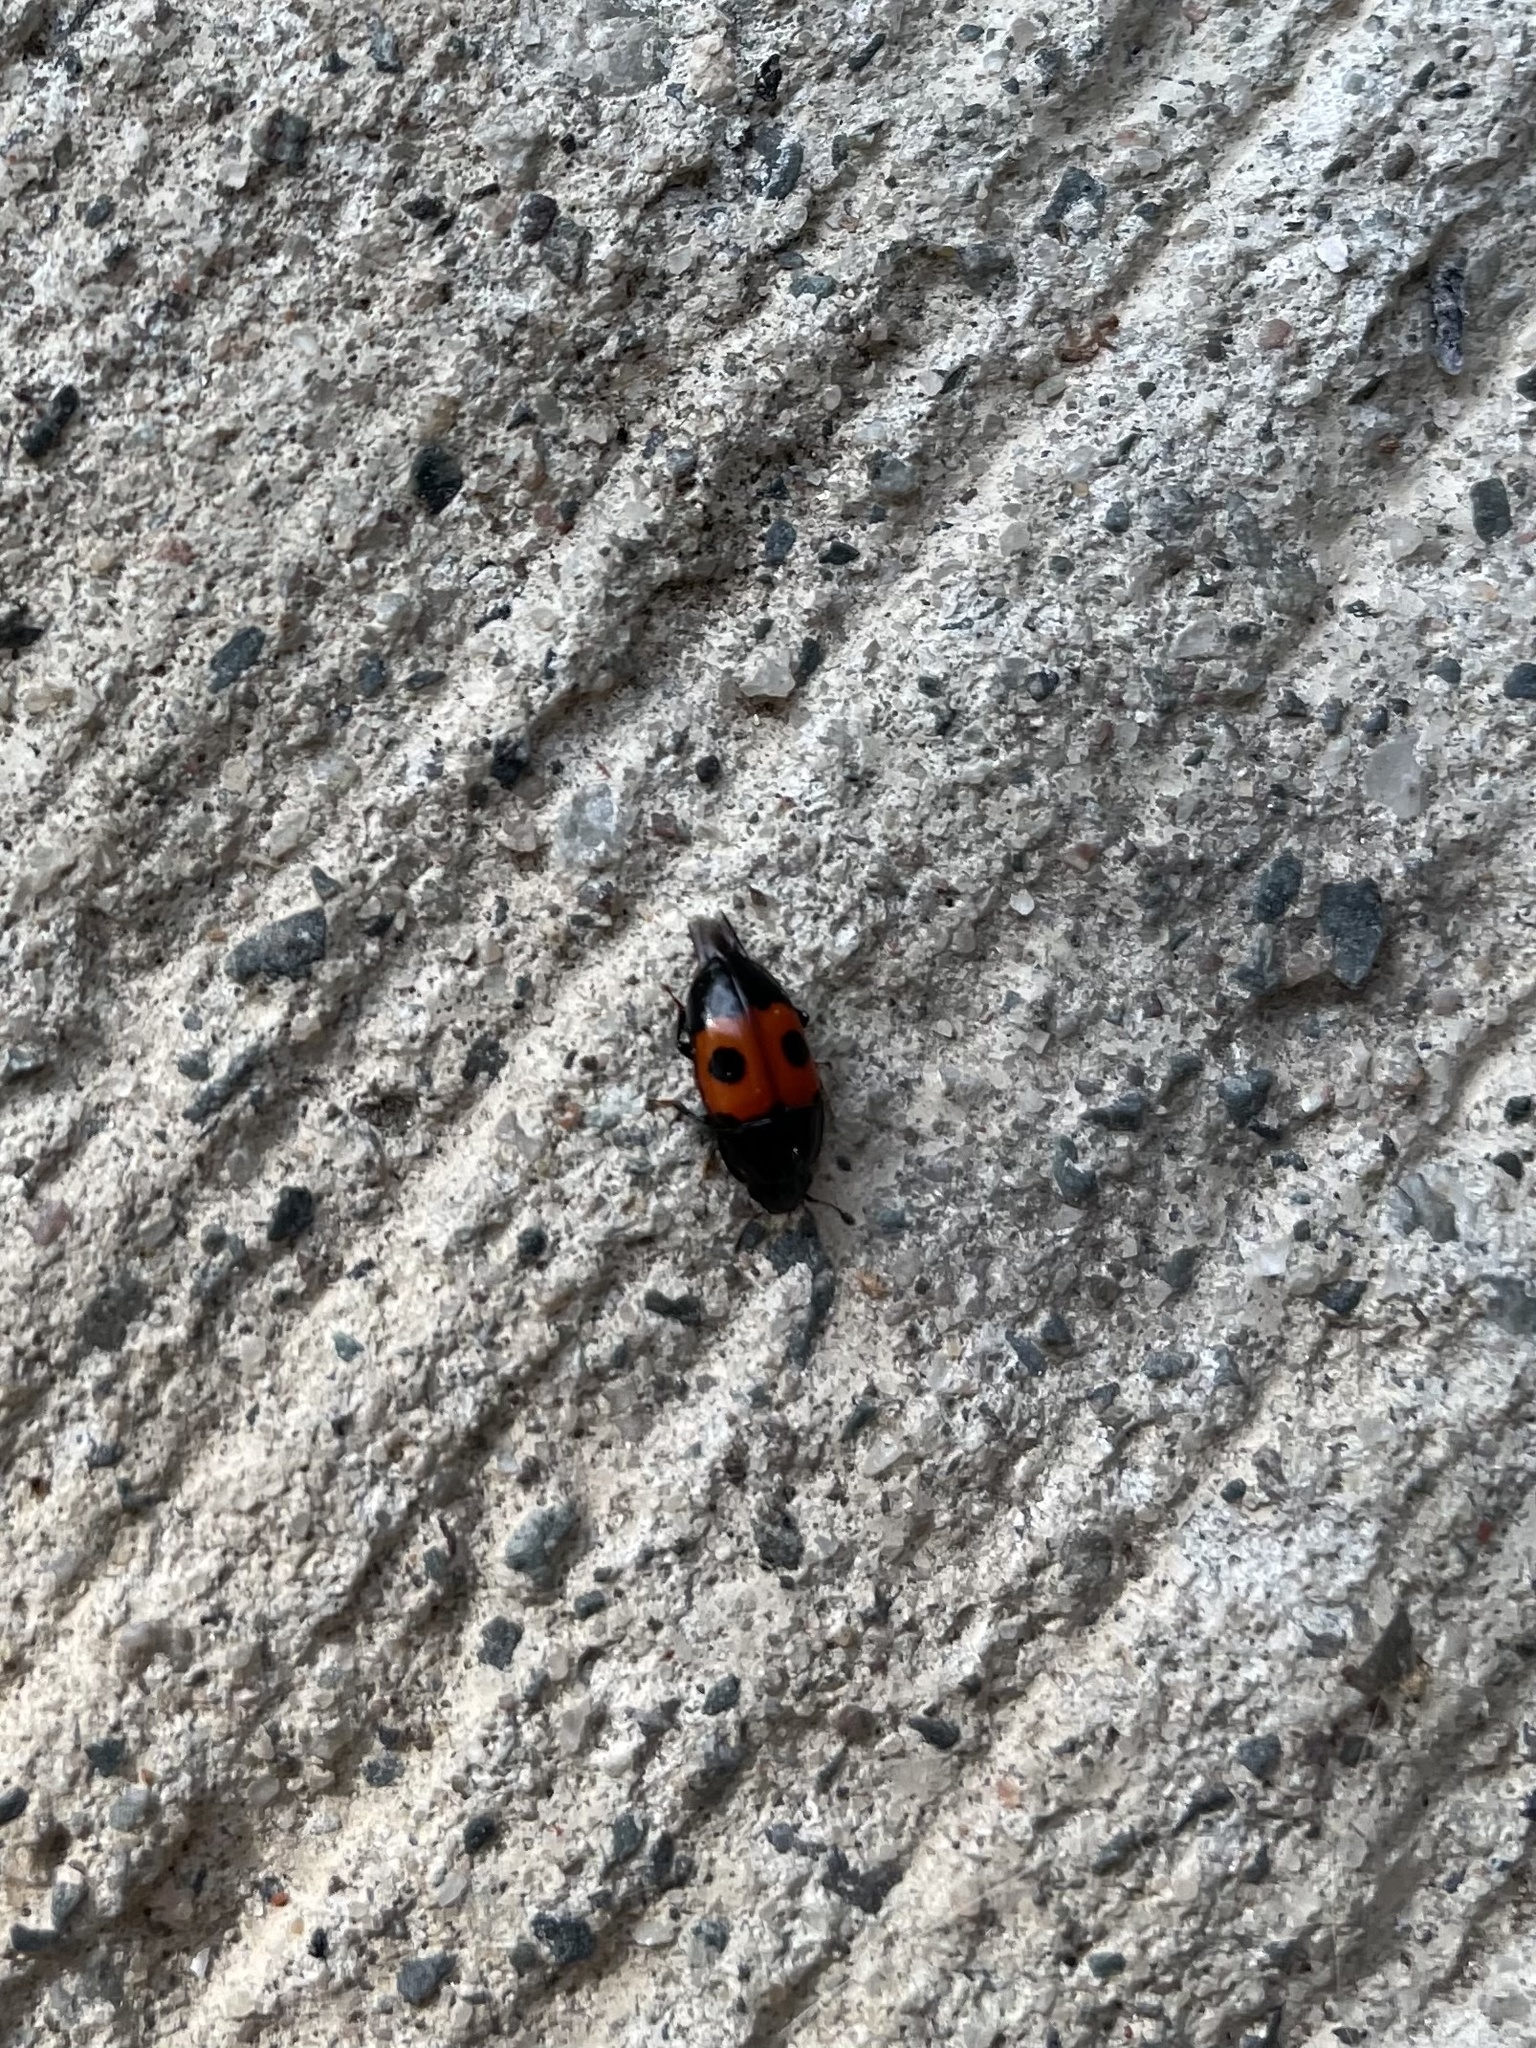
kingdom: Animalia
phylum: Arthropoda
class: Insecta
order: Coleoptera
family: Nitidulidae
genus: Glischrochilus
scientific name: Glischrochilus sanguinolentus
